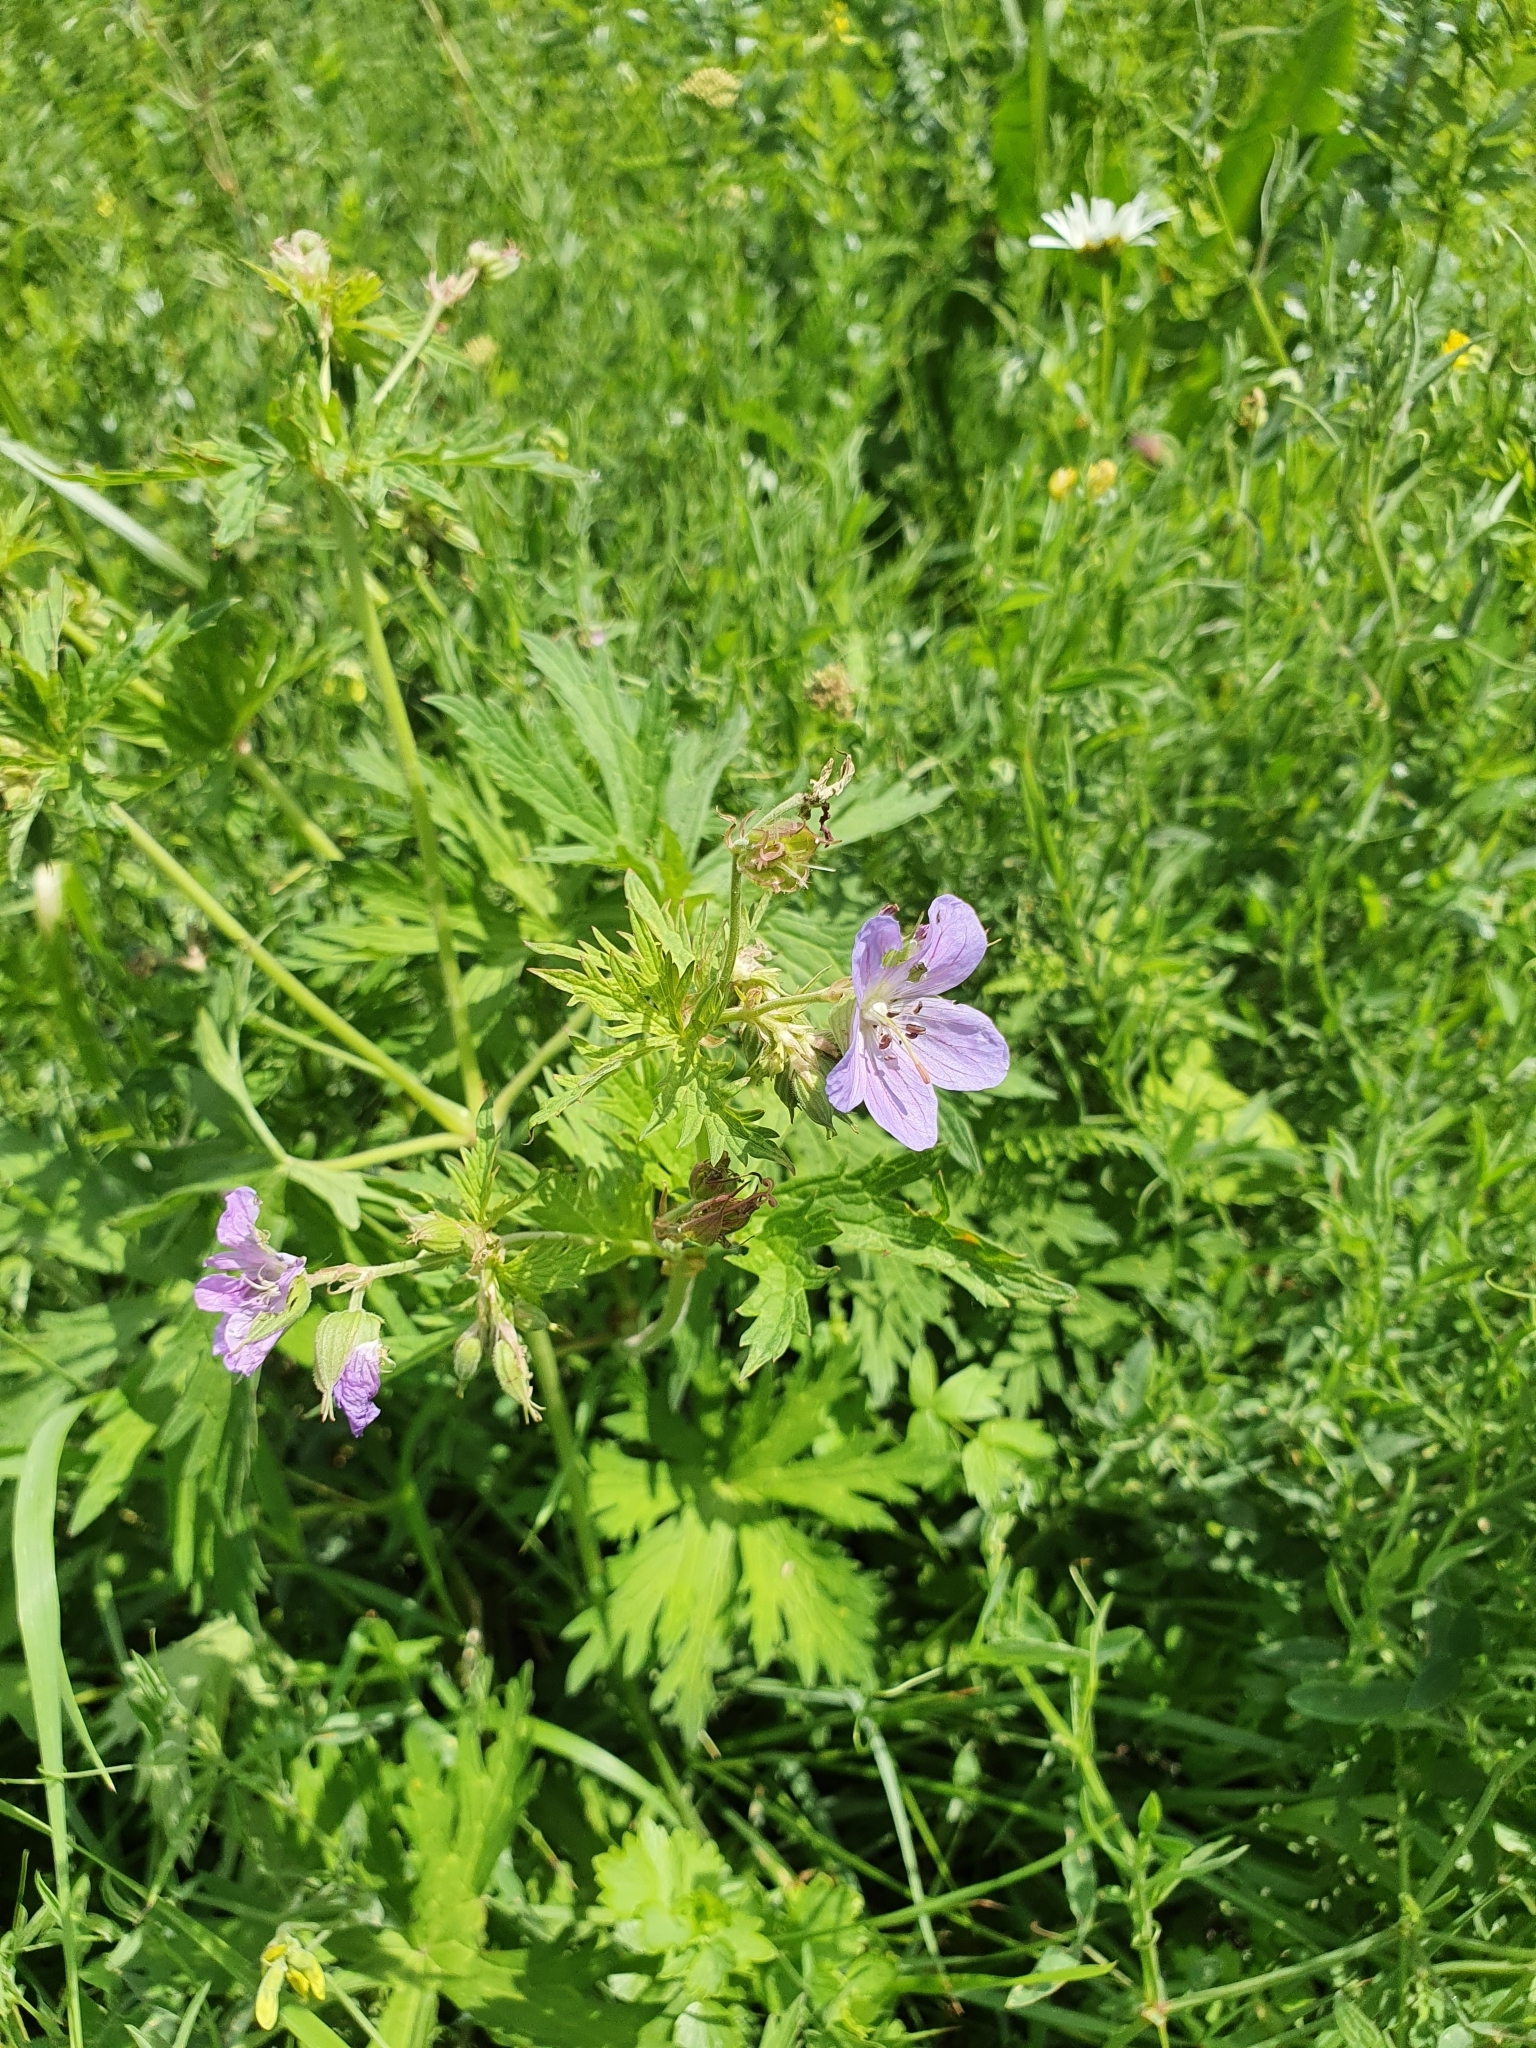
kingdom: Plantae
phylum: Tracheophyta
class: Magnoliopsida
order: Geraniales
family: Geraniaceae
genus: Geranium
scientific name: Geranium pratense
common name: Meadow crane's-bill
